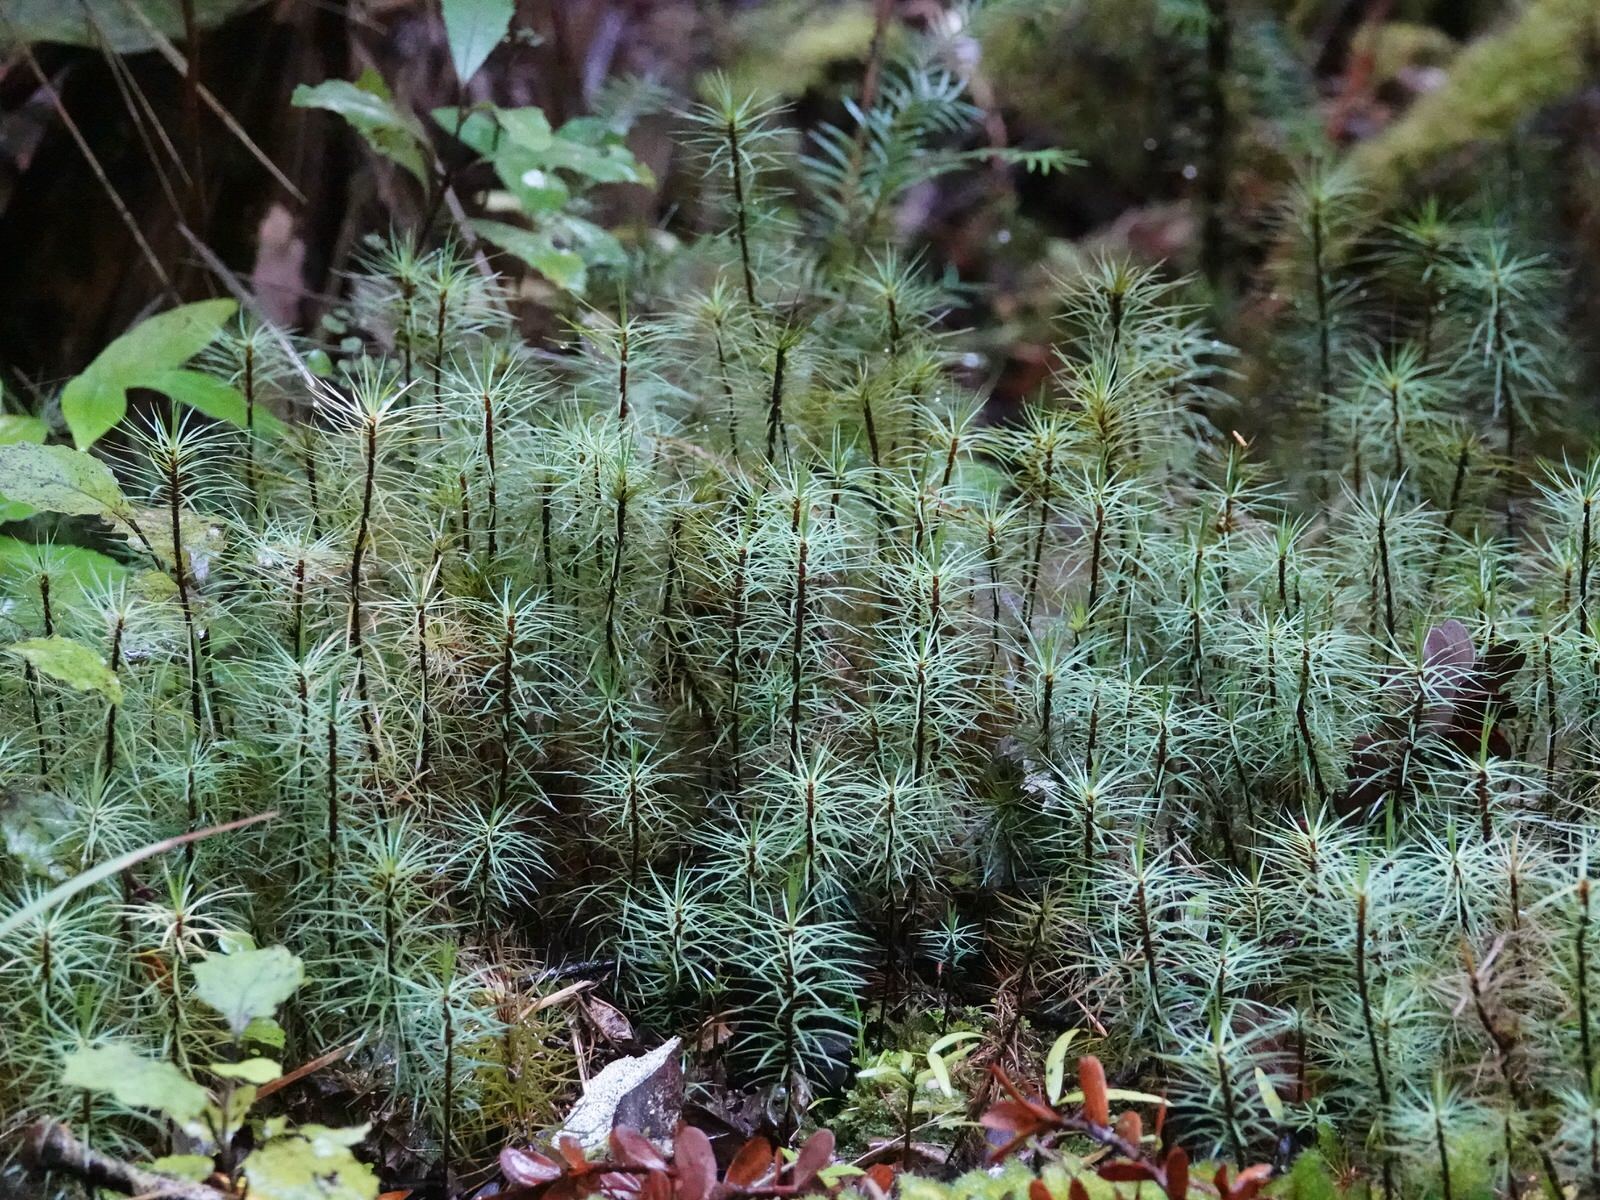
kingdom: Plantae
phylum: Bryophyta
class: Polytrichopsida
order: Polytrichales
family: Polytrichaceae
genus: Dawsonia
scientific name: Dawsonia superba
